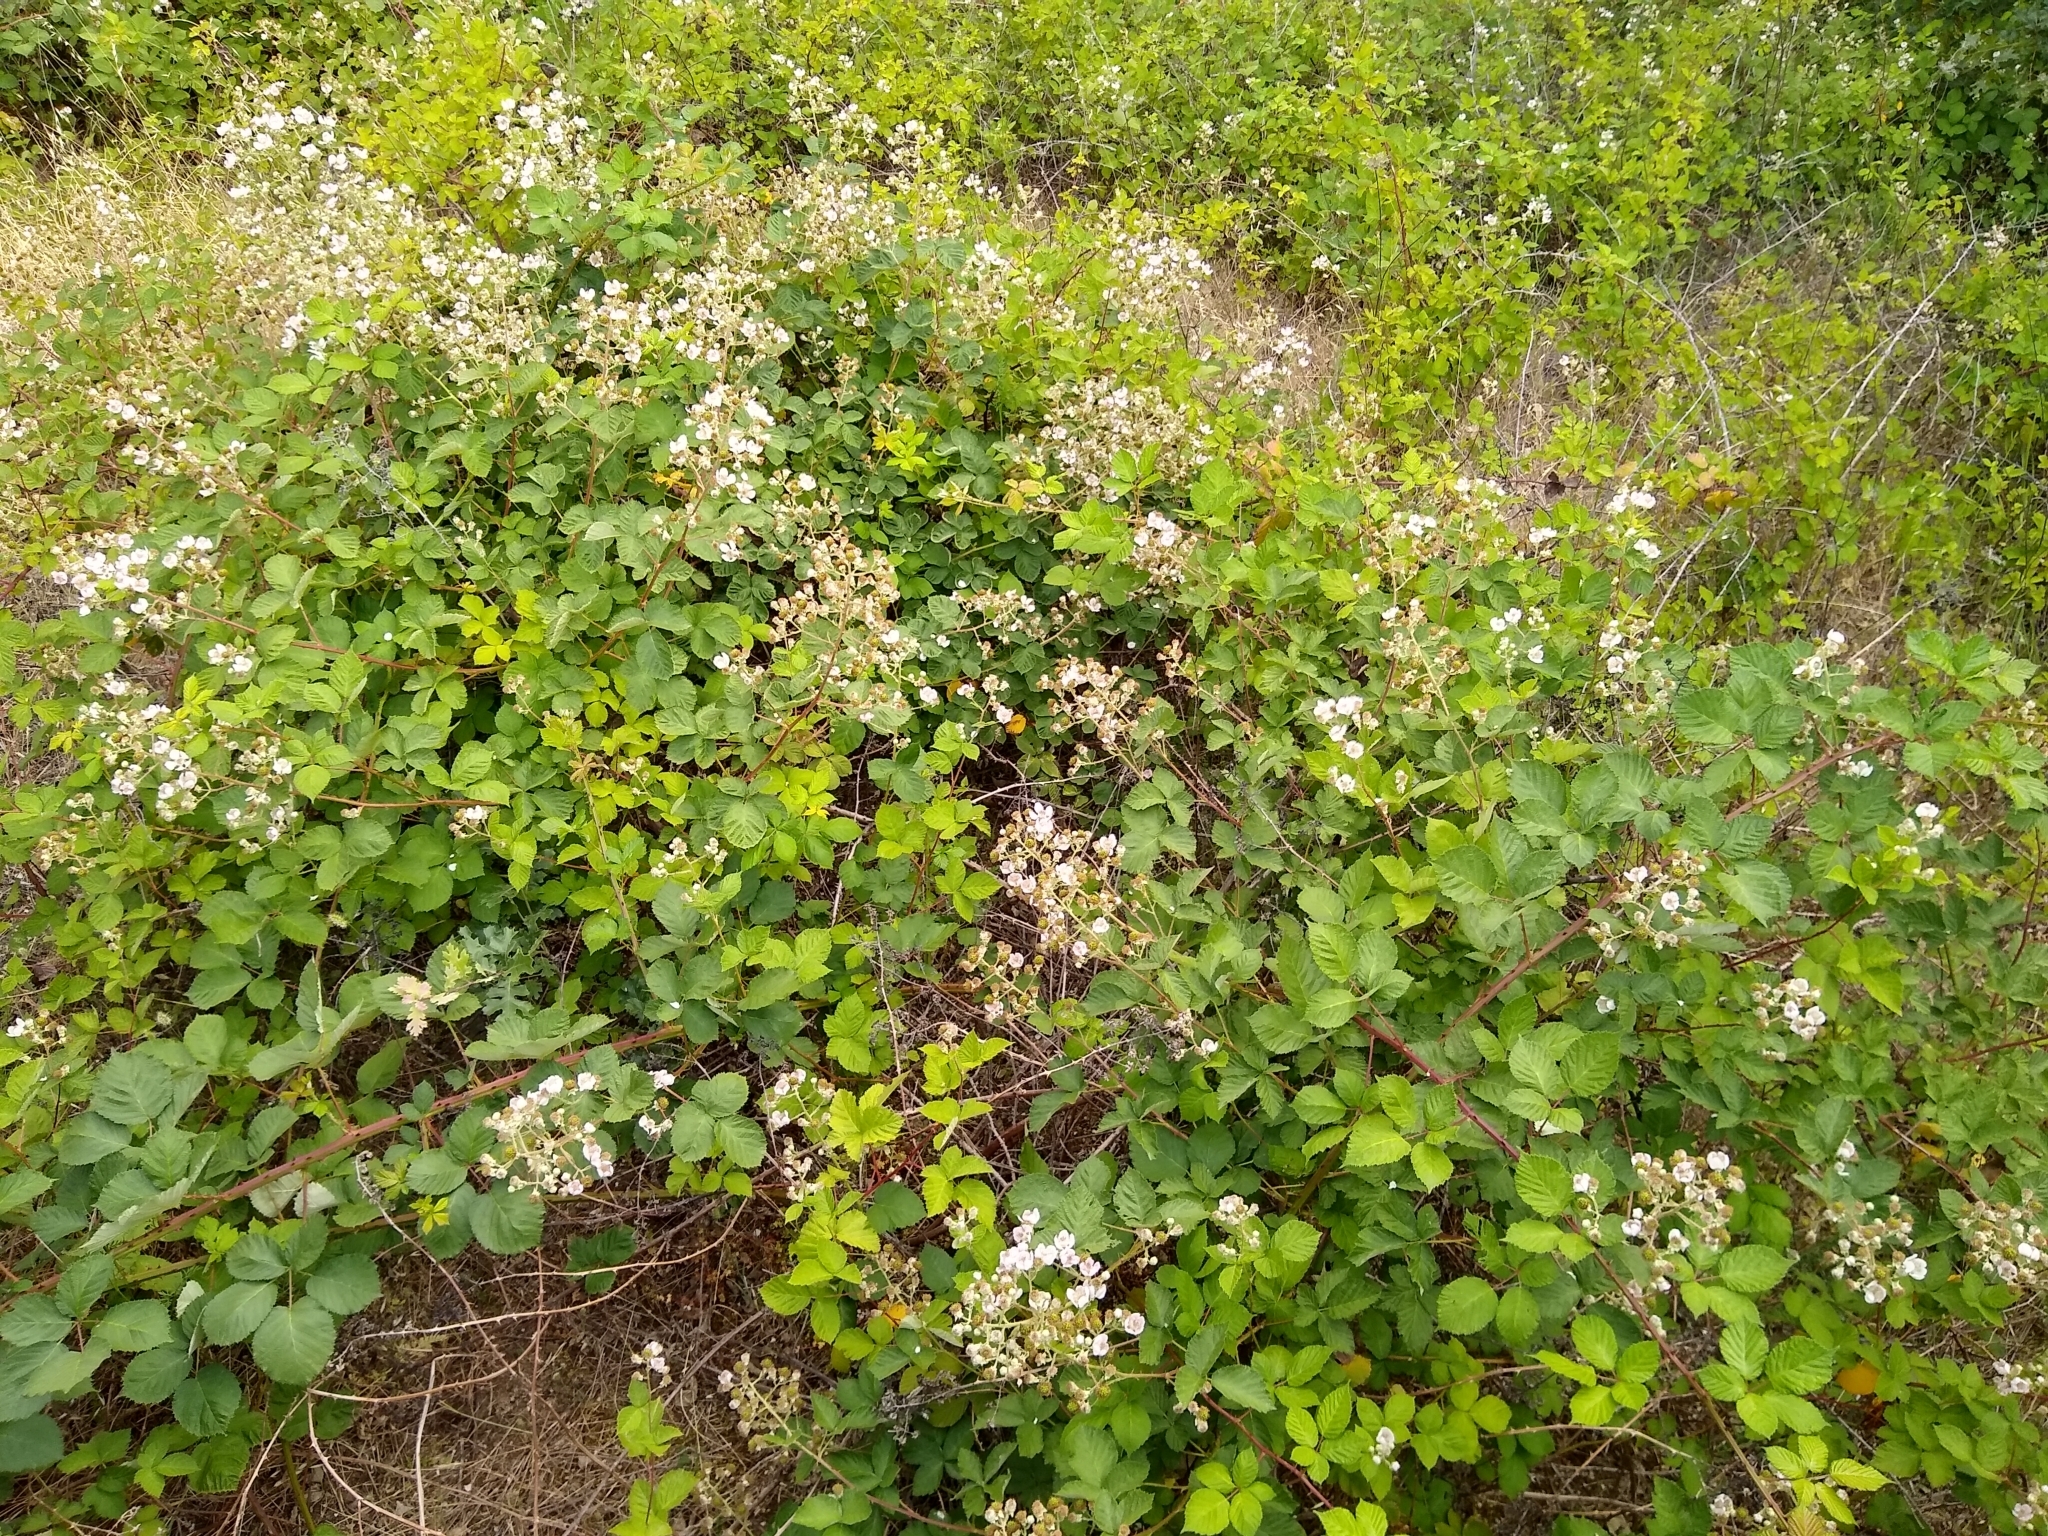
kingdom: Plantae
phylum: Tracheophyta
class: Magnoliopsida
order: Rosales
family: Rosaceae
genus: Rubus
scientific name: Rubus armeniacus
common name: Himalayan blackberry
